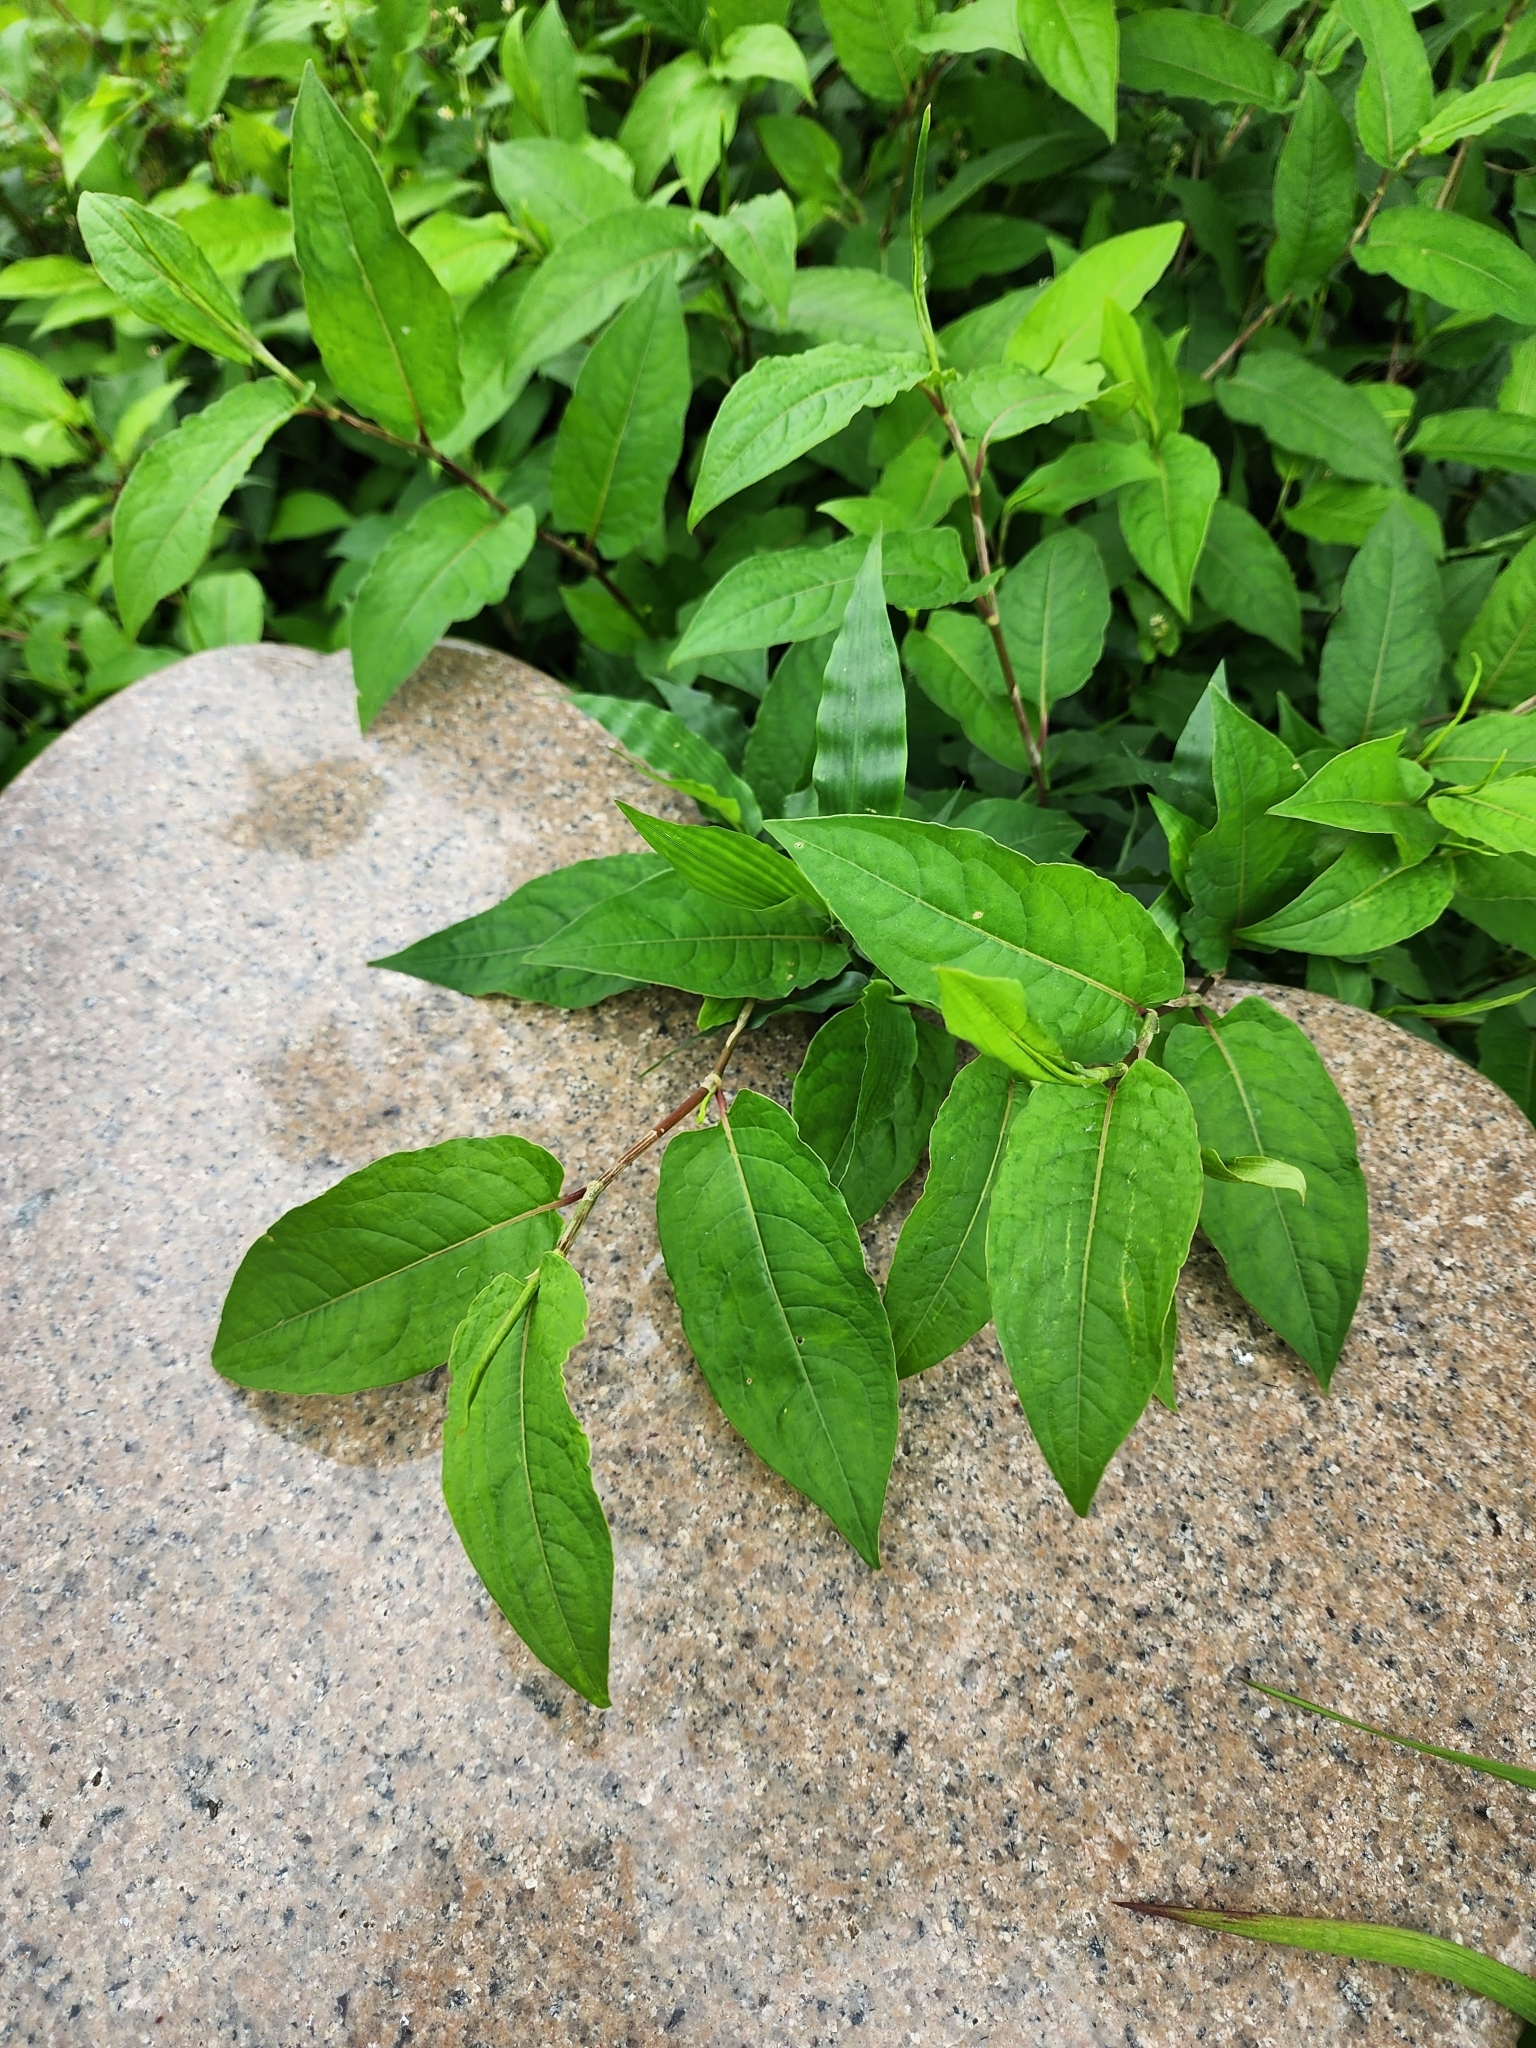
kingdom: Plantae
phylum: Tracheophyta
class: Magnoliopsida
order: Caryophyllales
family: Polygonaceae
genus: Persicaria
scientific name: Persicaria chinensis
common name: Chinese knotweed
